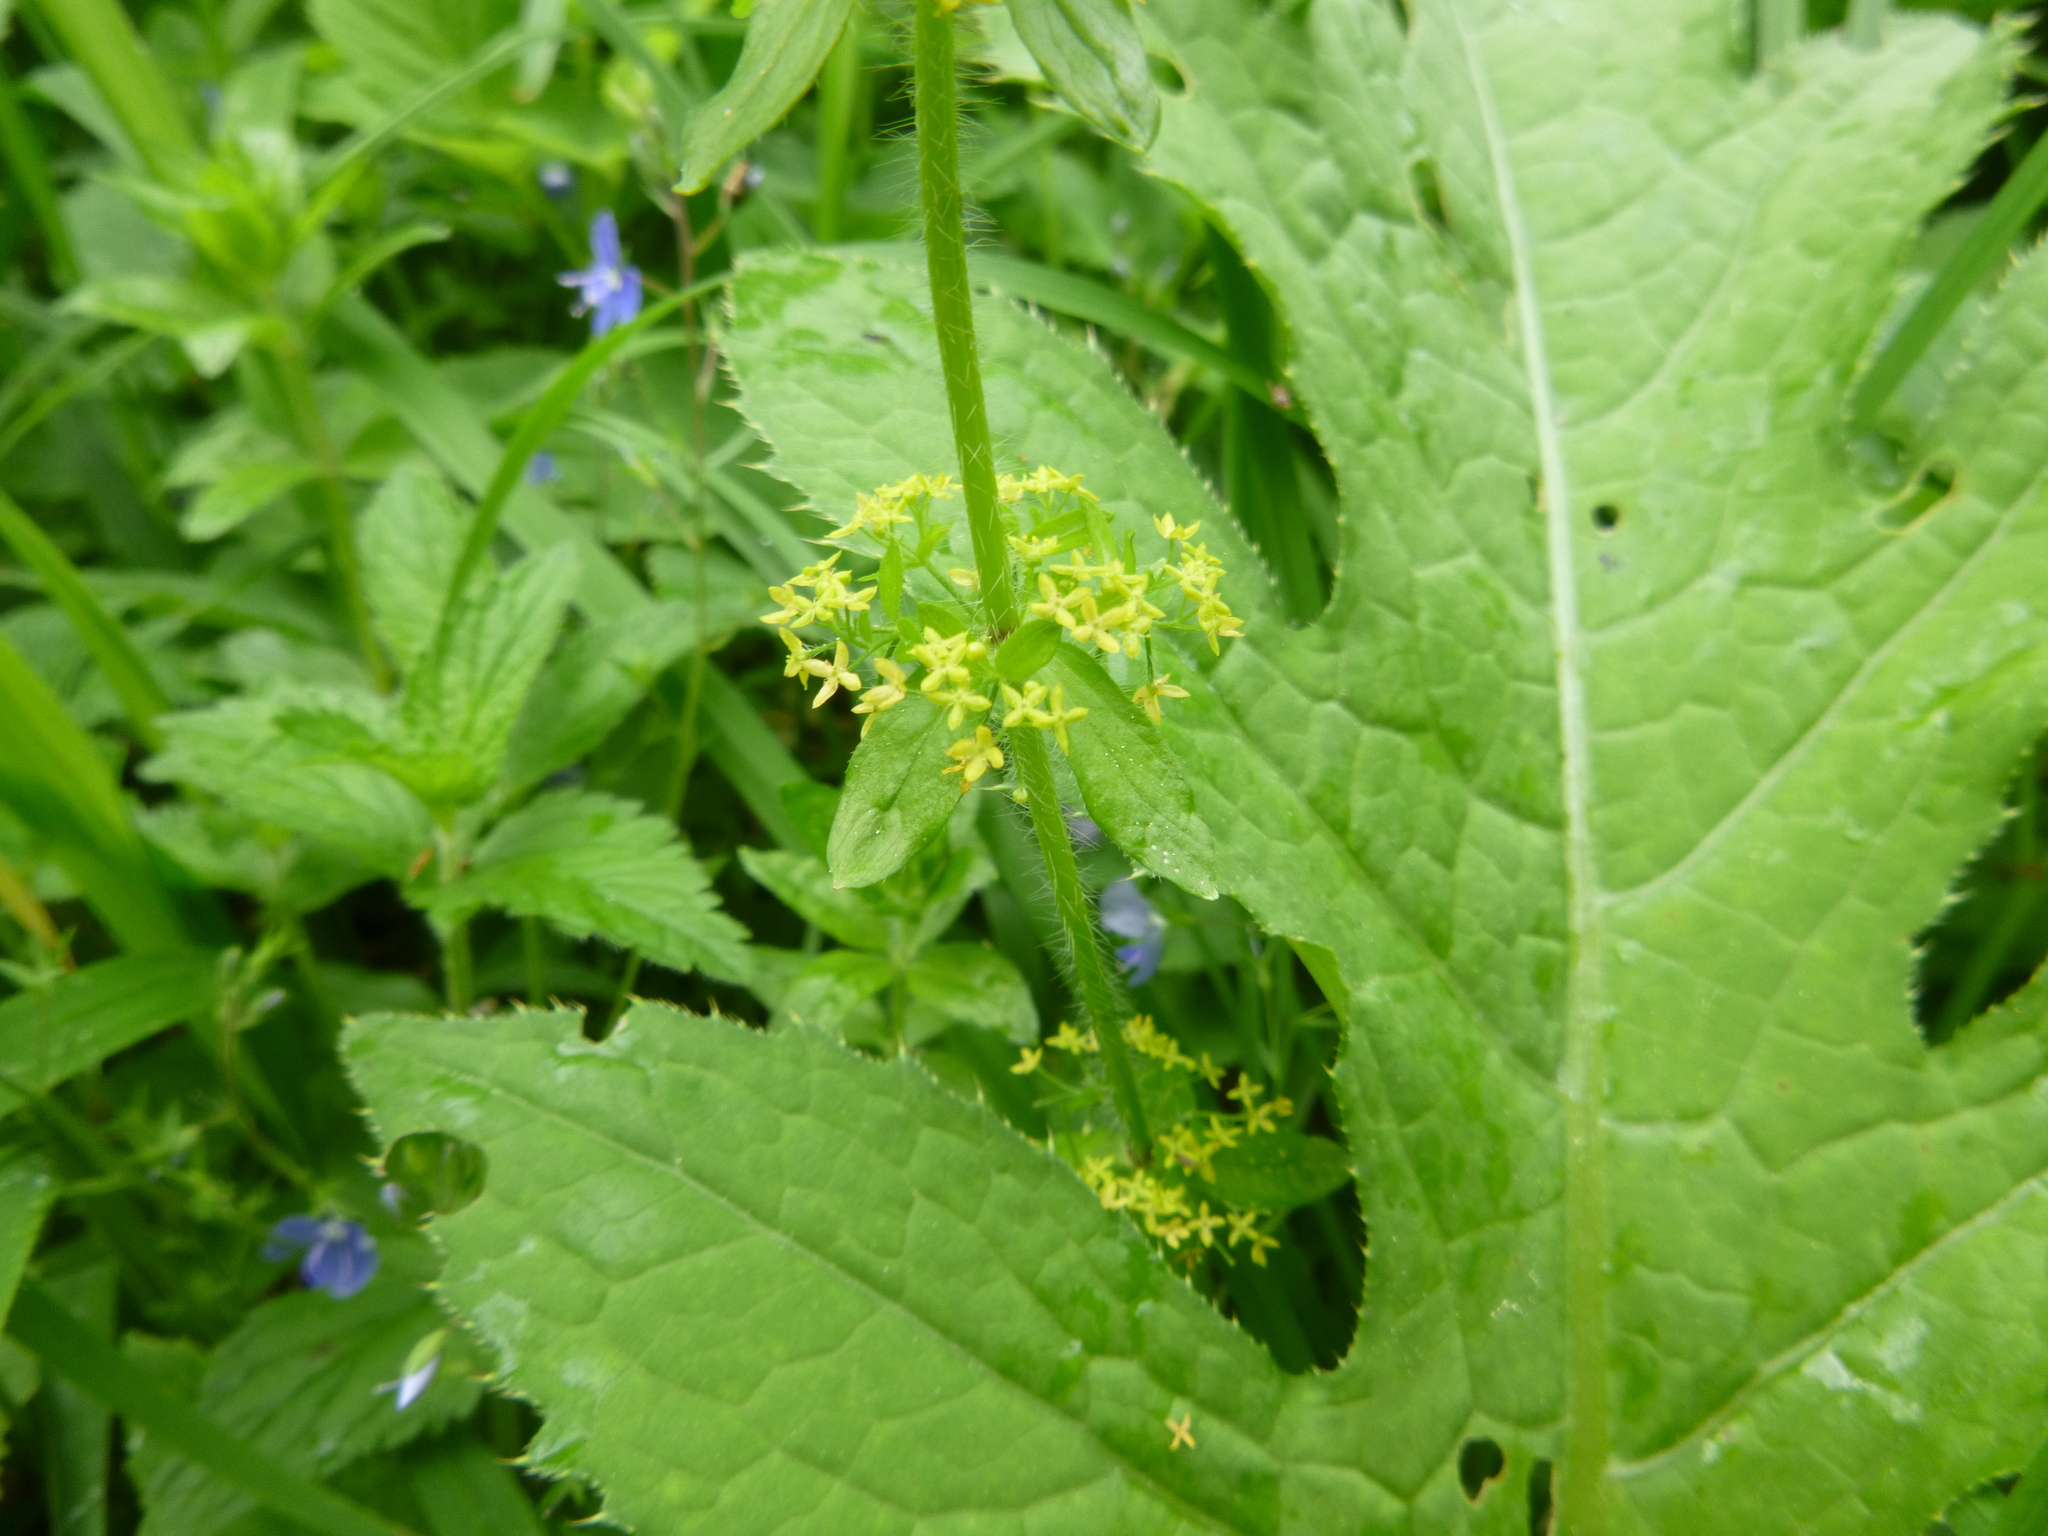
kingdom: Plantae
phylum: Tracheophyta
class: Magnoliopsida
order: Gentianales
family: Rubiaceae
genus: Cruciata
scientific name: Cruciata laevipes
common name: Crosswort
